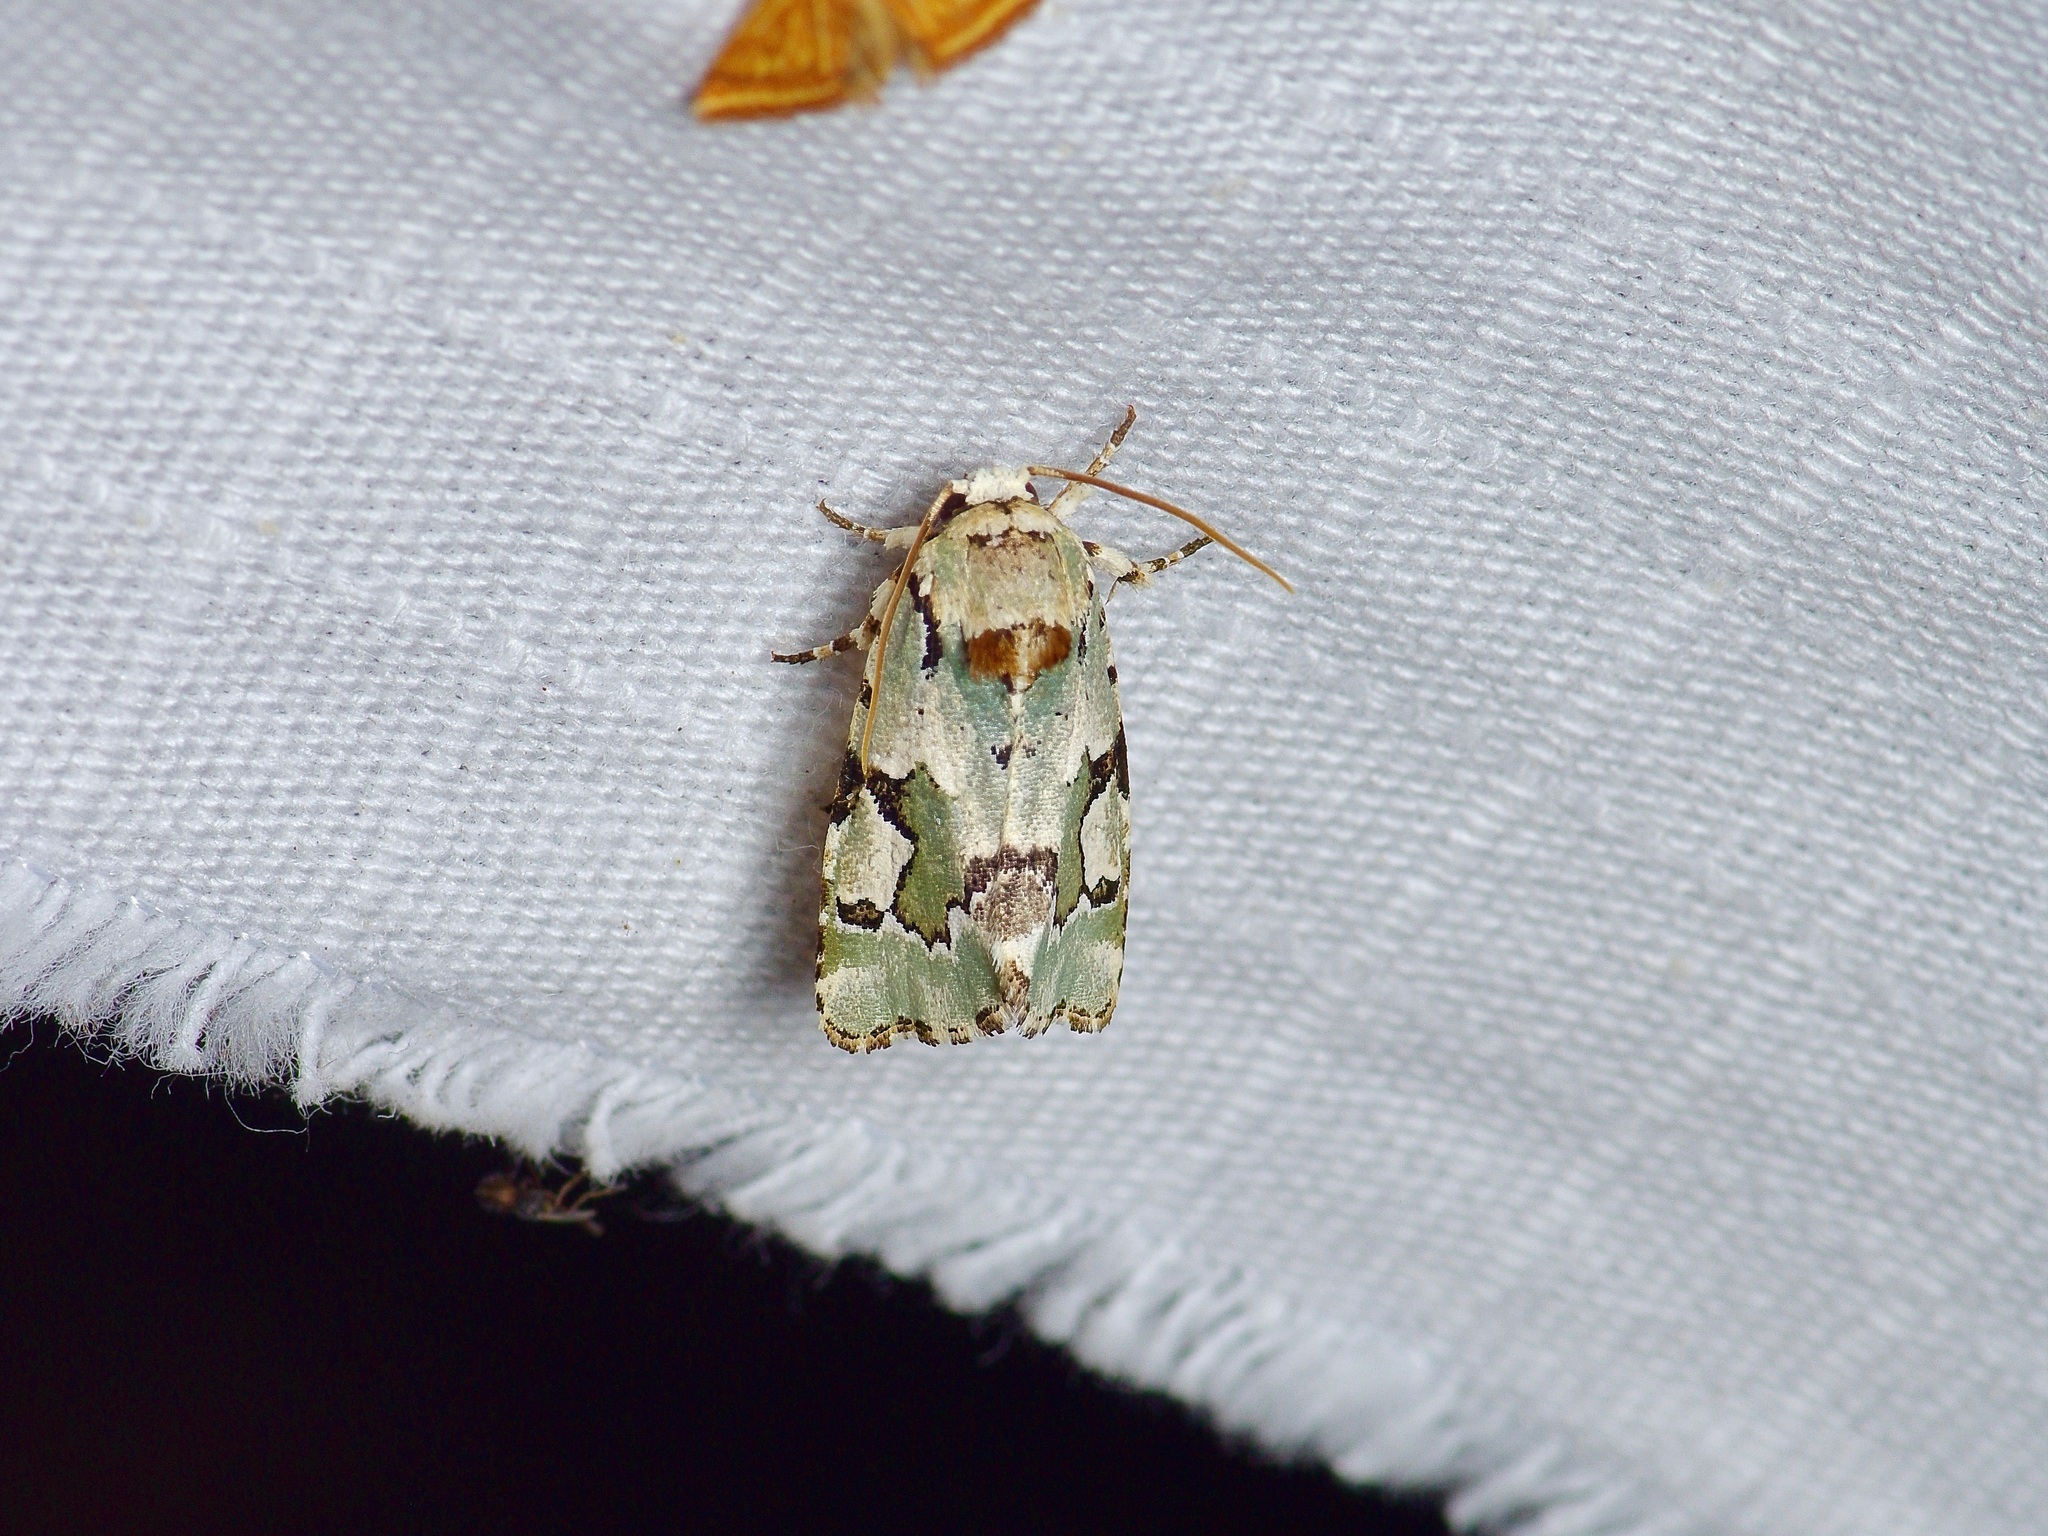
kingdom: Animalia
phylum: Arthropoda
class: Insecta
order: Lepidoptera
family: Noctuidae
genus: Emarginea
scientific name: Emarginea percara
